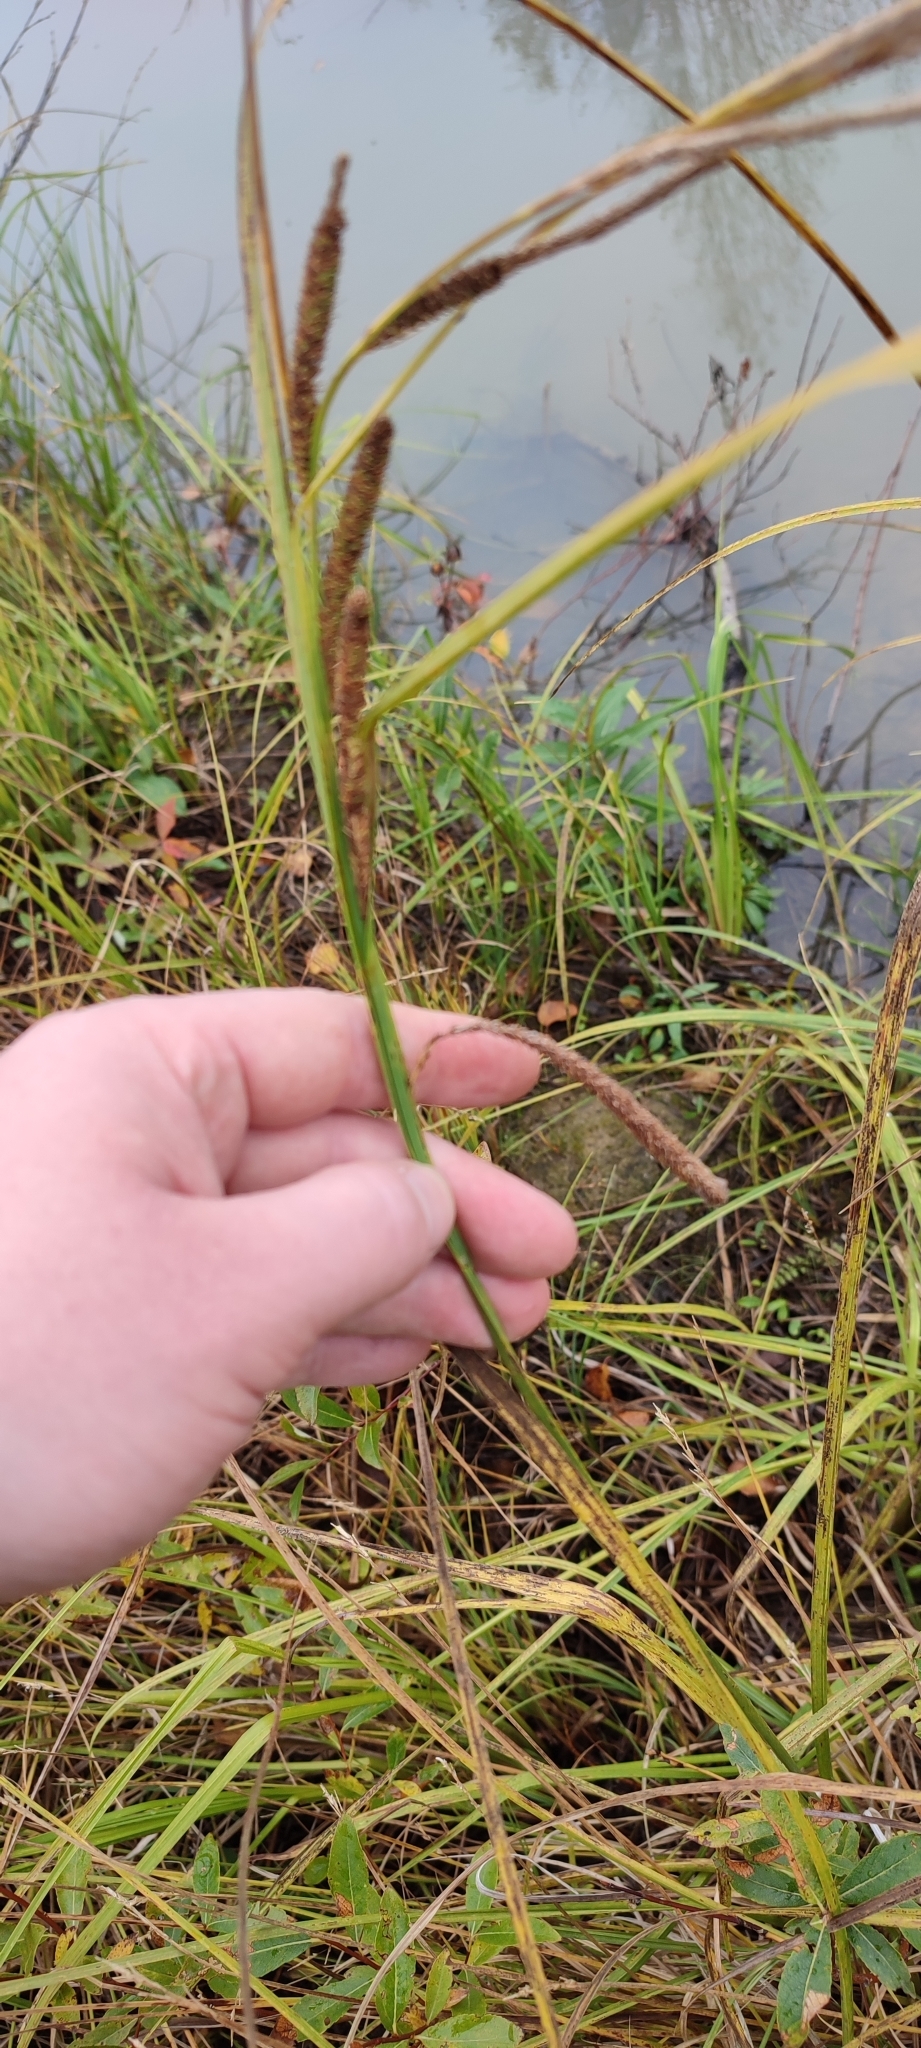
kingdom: Plantae
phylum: Tracheophyta
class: Liliopsida
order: Poales
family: Cyperaceae
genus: Carex
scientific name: Carex aquatilis
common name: Water sedge
